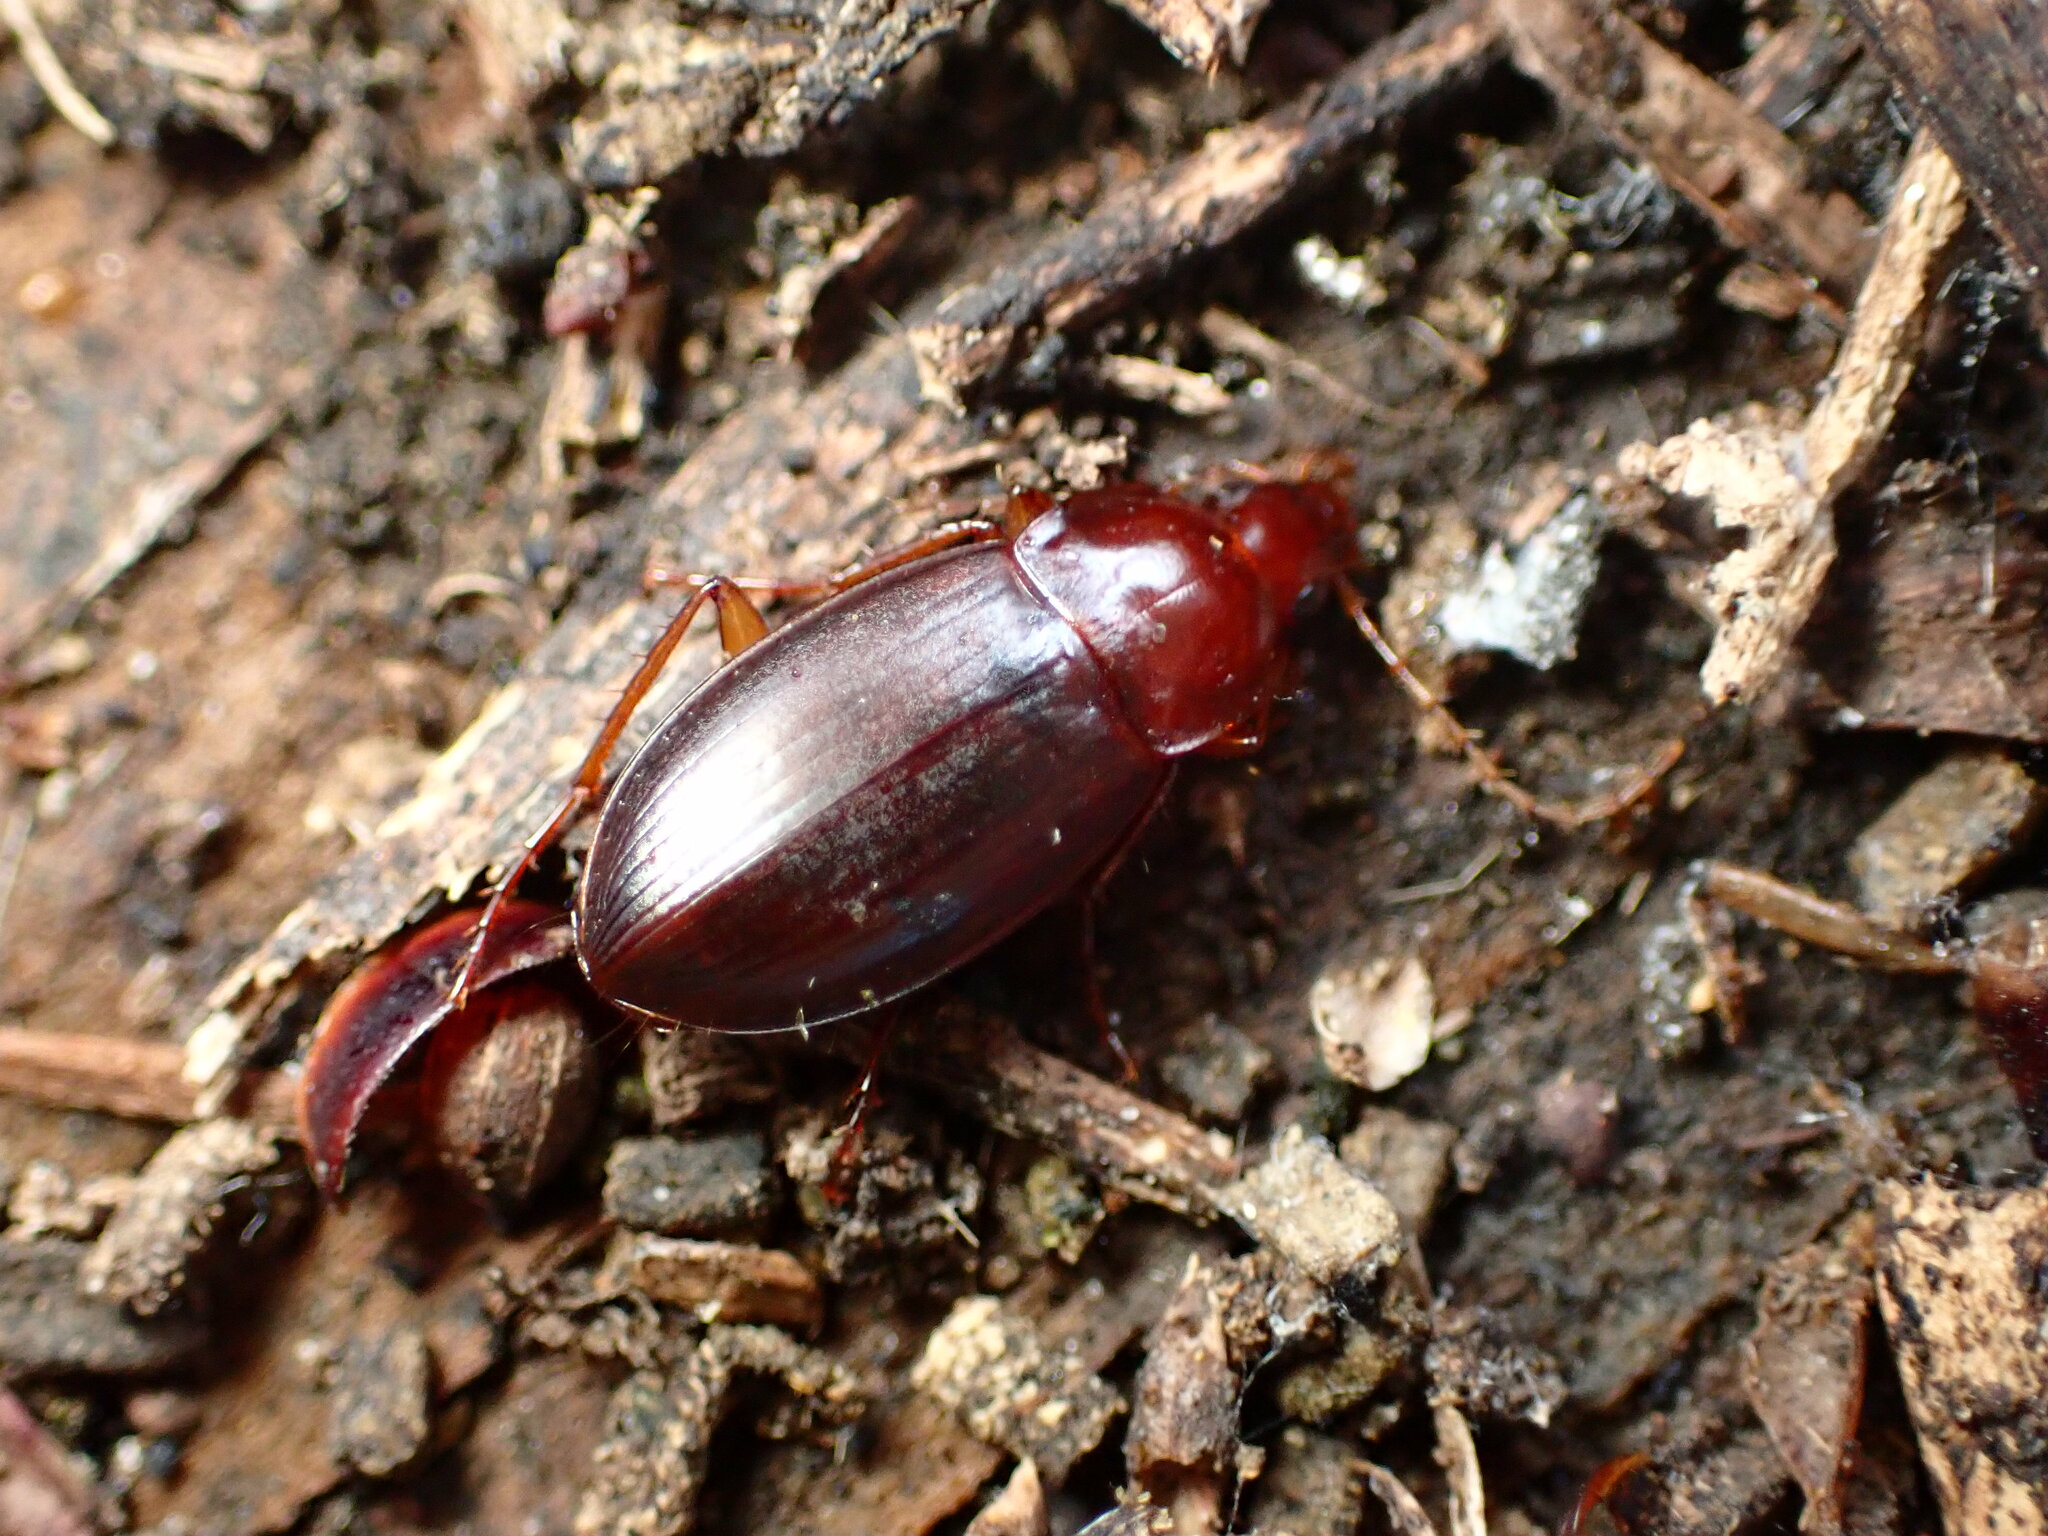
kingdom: Animalia
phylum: Arthropoda
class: Insecta
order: Coleoptera
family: Carabidae
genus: Calathus
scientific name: Calathus ruficollis
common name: Red-collared harp ground beetle
